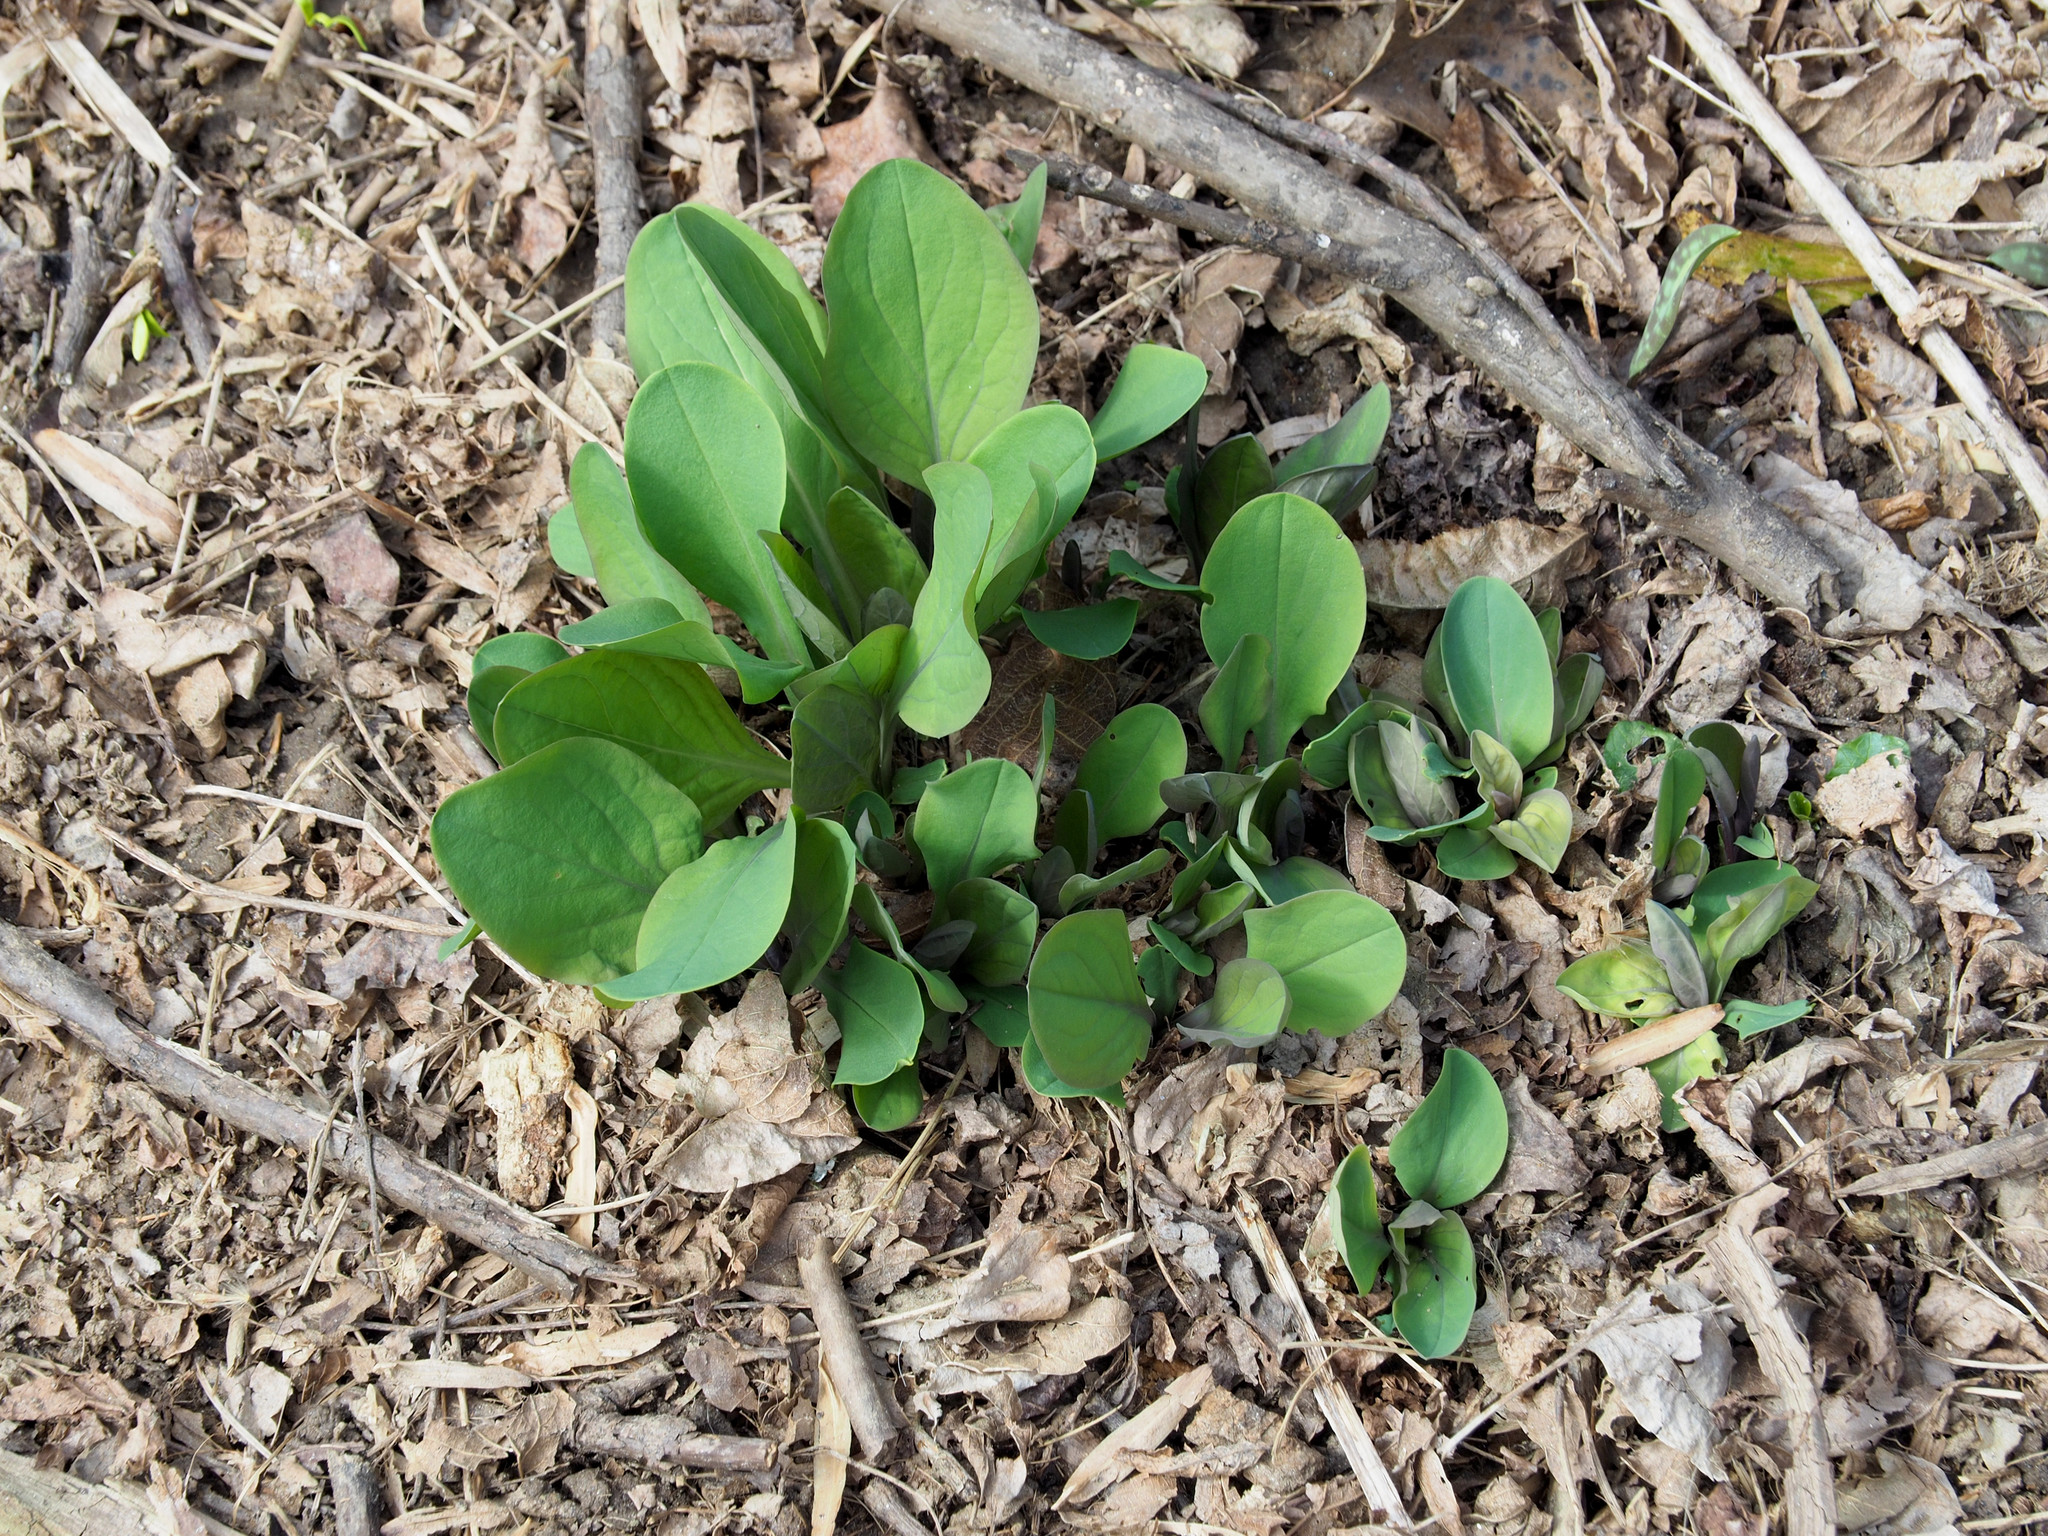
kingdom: Plantae
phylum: Tracheophyta
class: Magnoliopsida
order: Boraginales
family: Boraginaceae
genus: Mertensia
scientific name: Mertensia virginica
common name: Virginia bluebells
